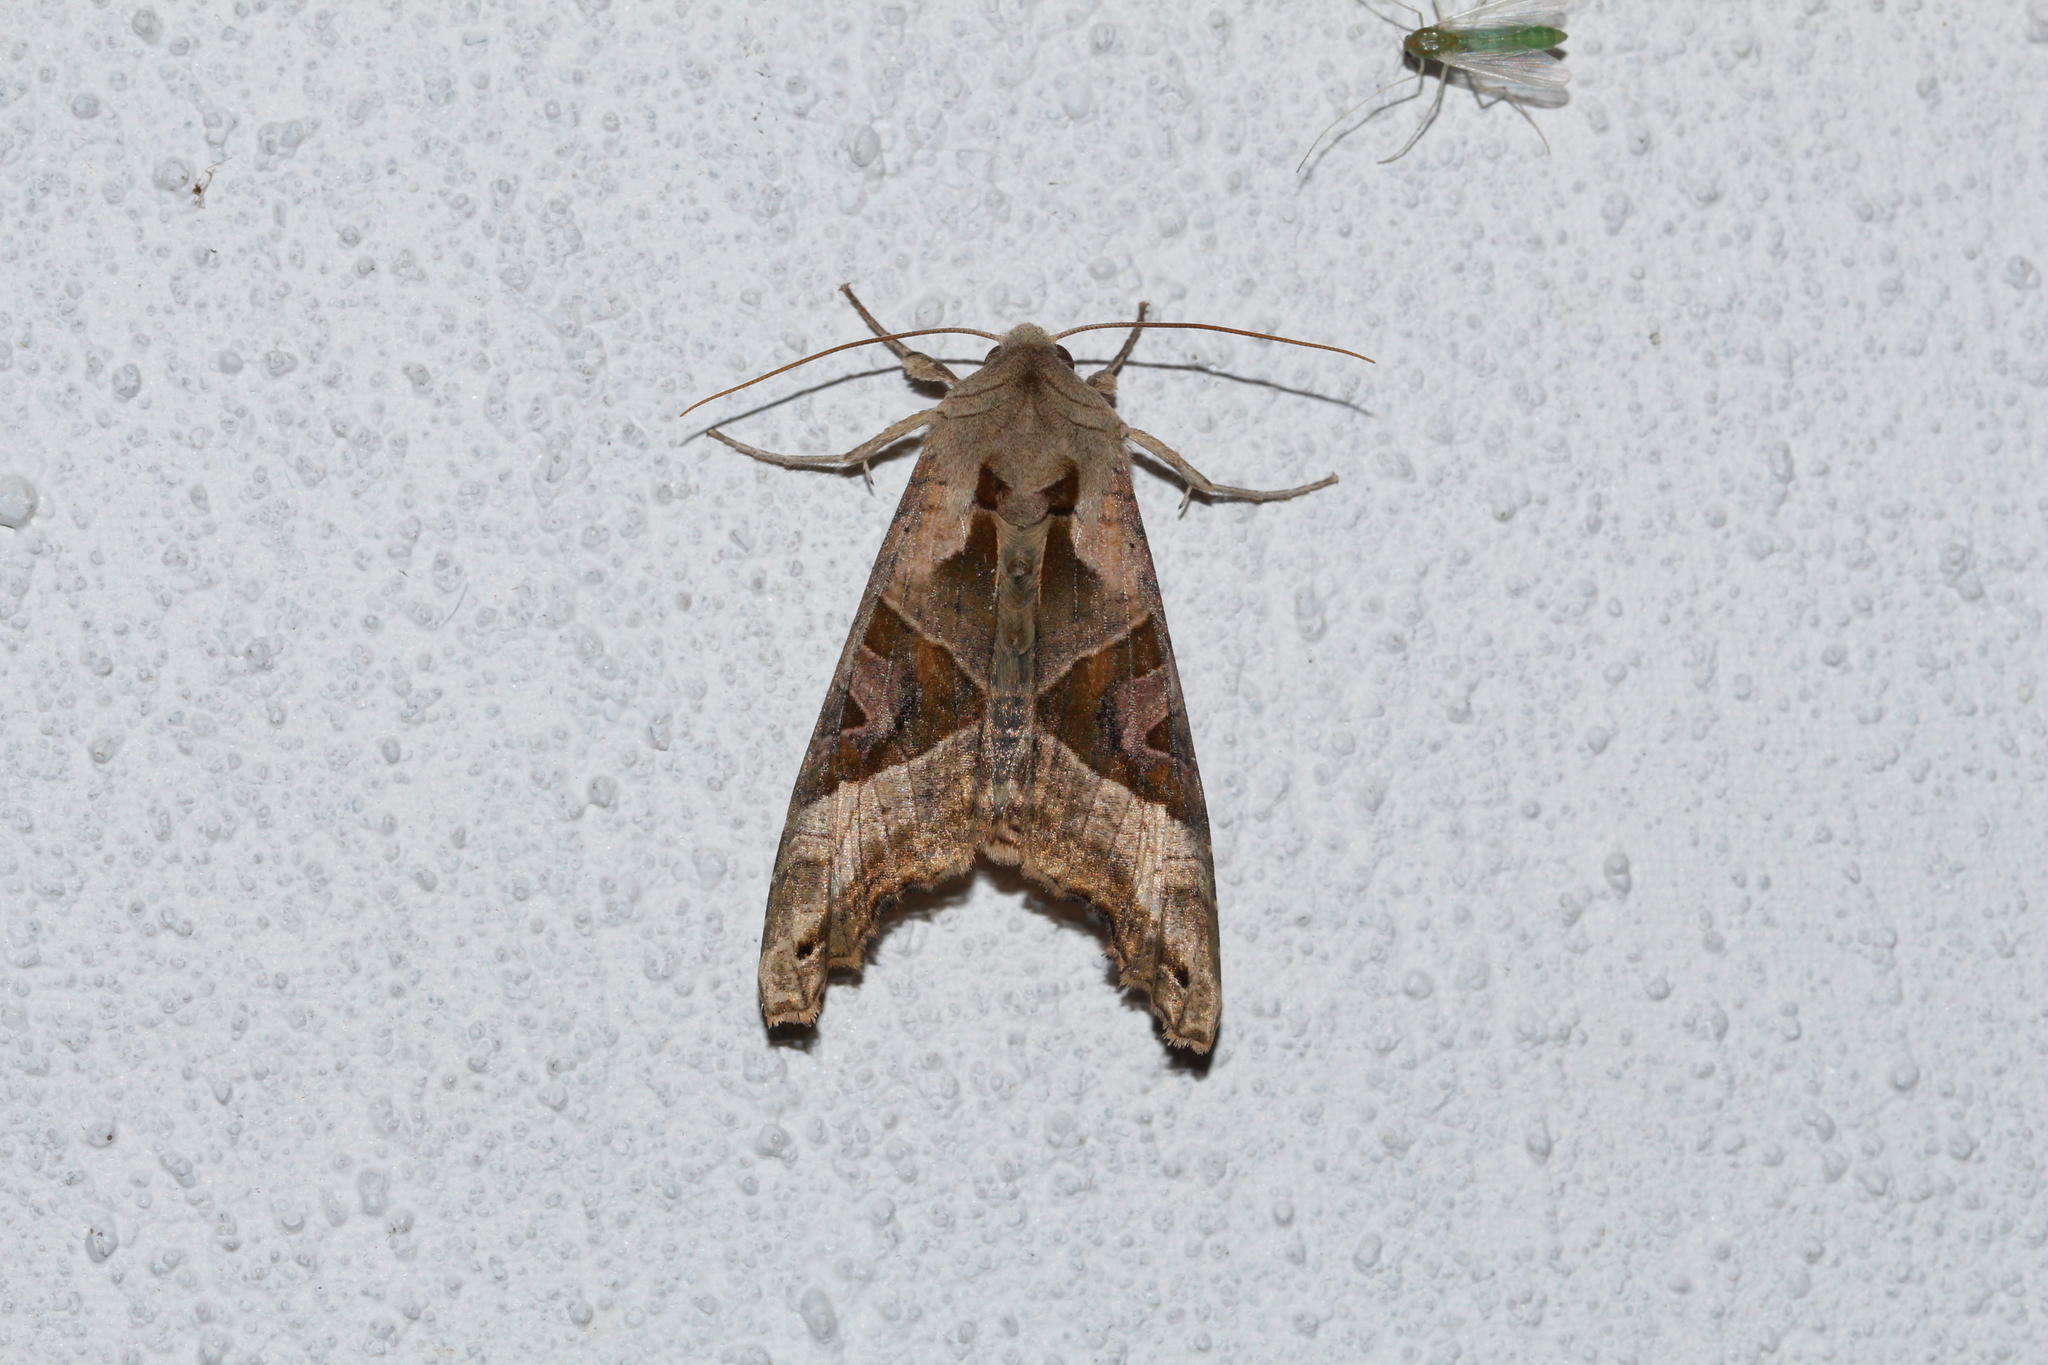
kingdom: Animalia
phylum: Arthropoda
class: Insecta
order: Lepidoptera
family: Noctuidae
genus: Phlogophora
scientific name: Phlogophora meticulosa
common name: Angle shades
